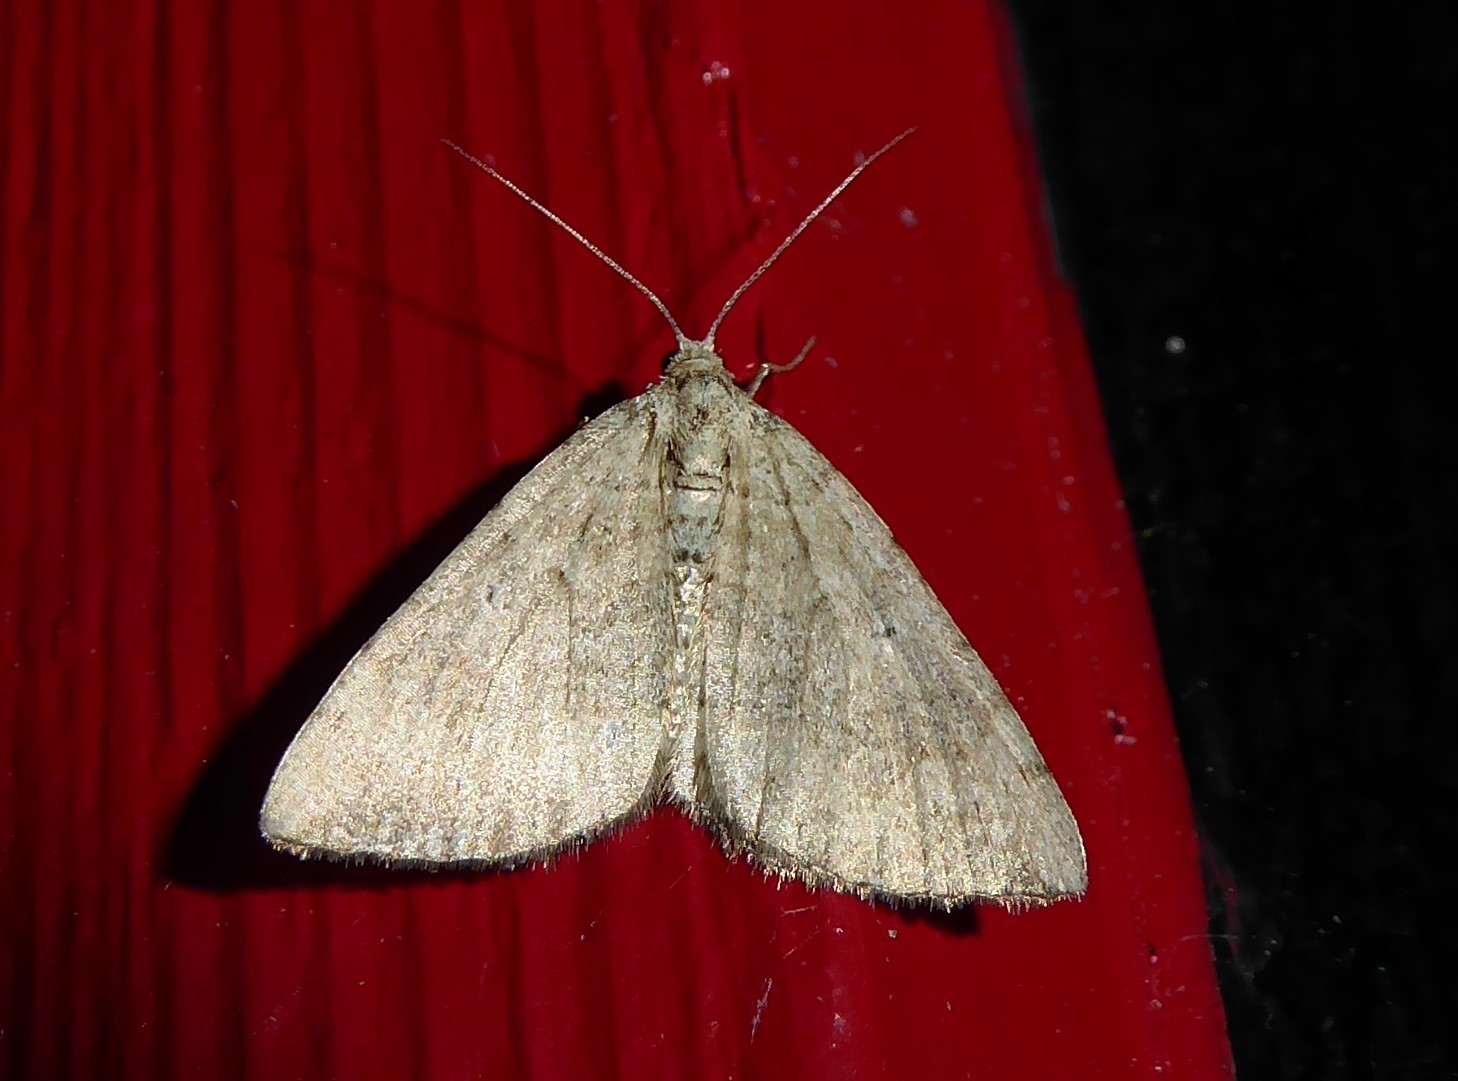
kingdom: Animalia
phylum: Arthropoda
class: Insecta
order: Lepidoptera
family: Geometridae
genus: Epyaxa
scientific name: Epyaxa rosearia
